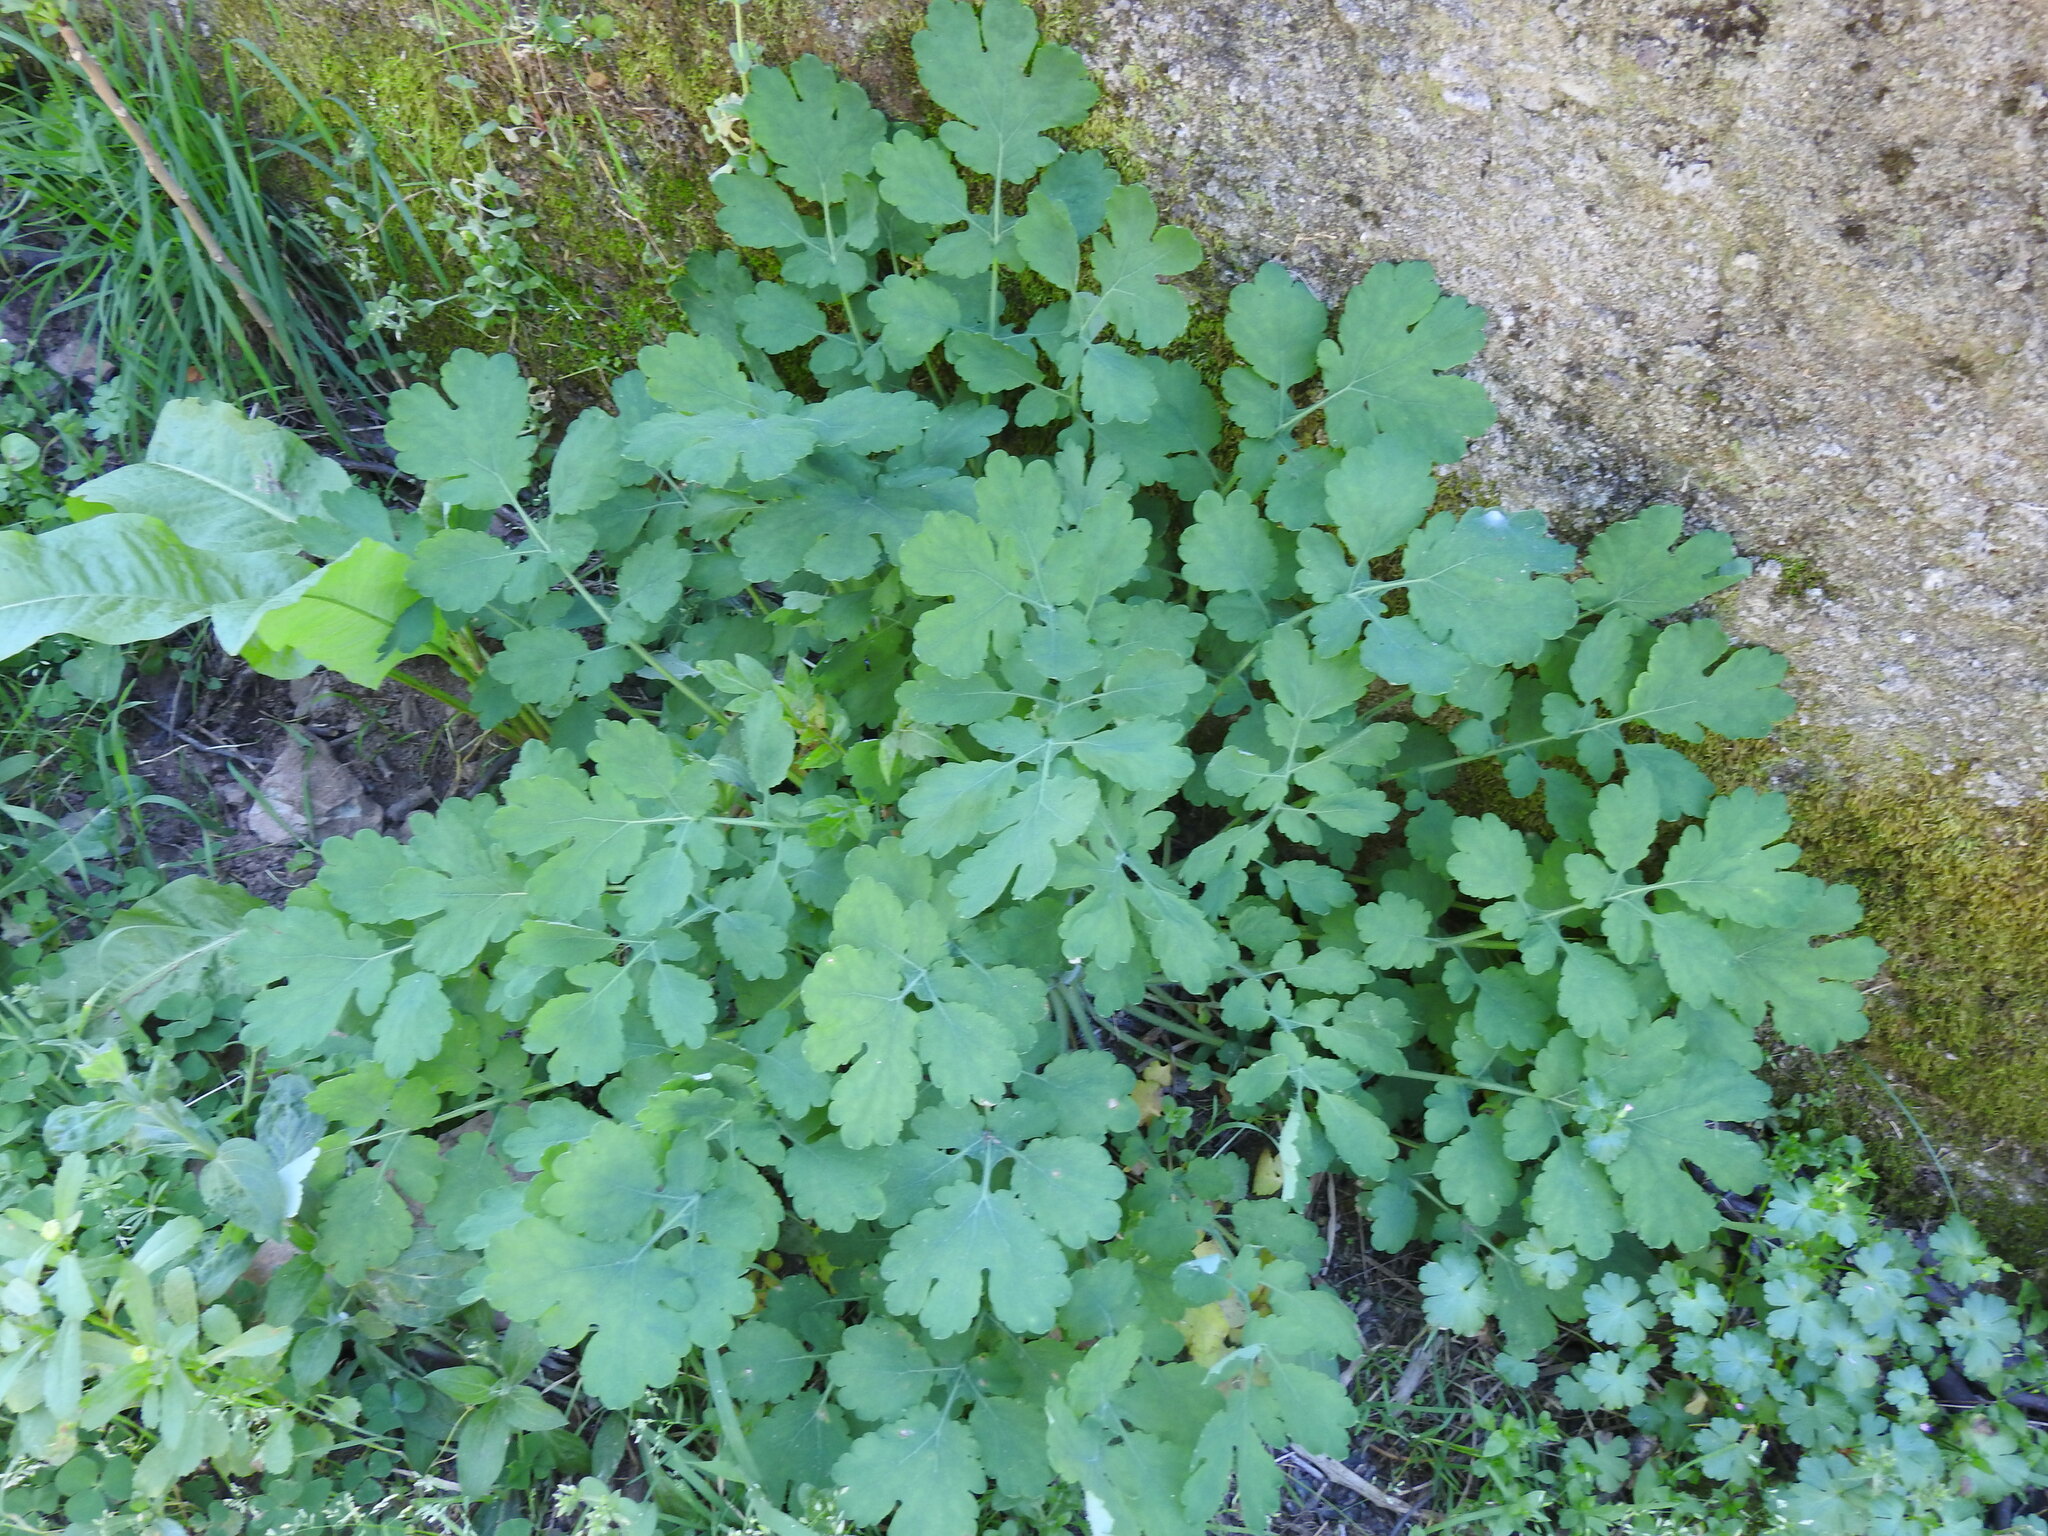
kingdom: Plantae
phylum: Tracheophyta
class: Magnoliopsida
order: Ranunculales
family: Papaveraceae
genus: Chelidonium
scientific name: Chelidonium majus
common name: Greater celandine
